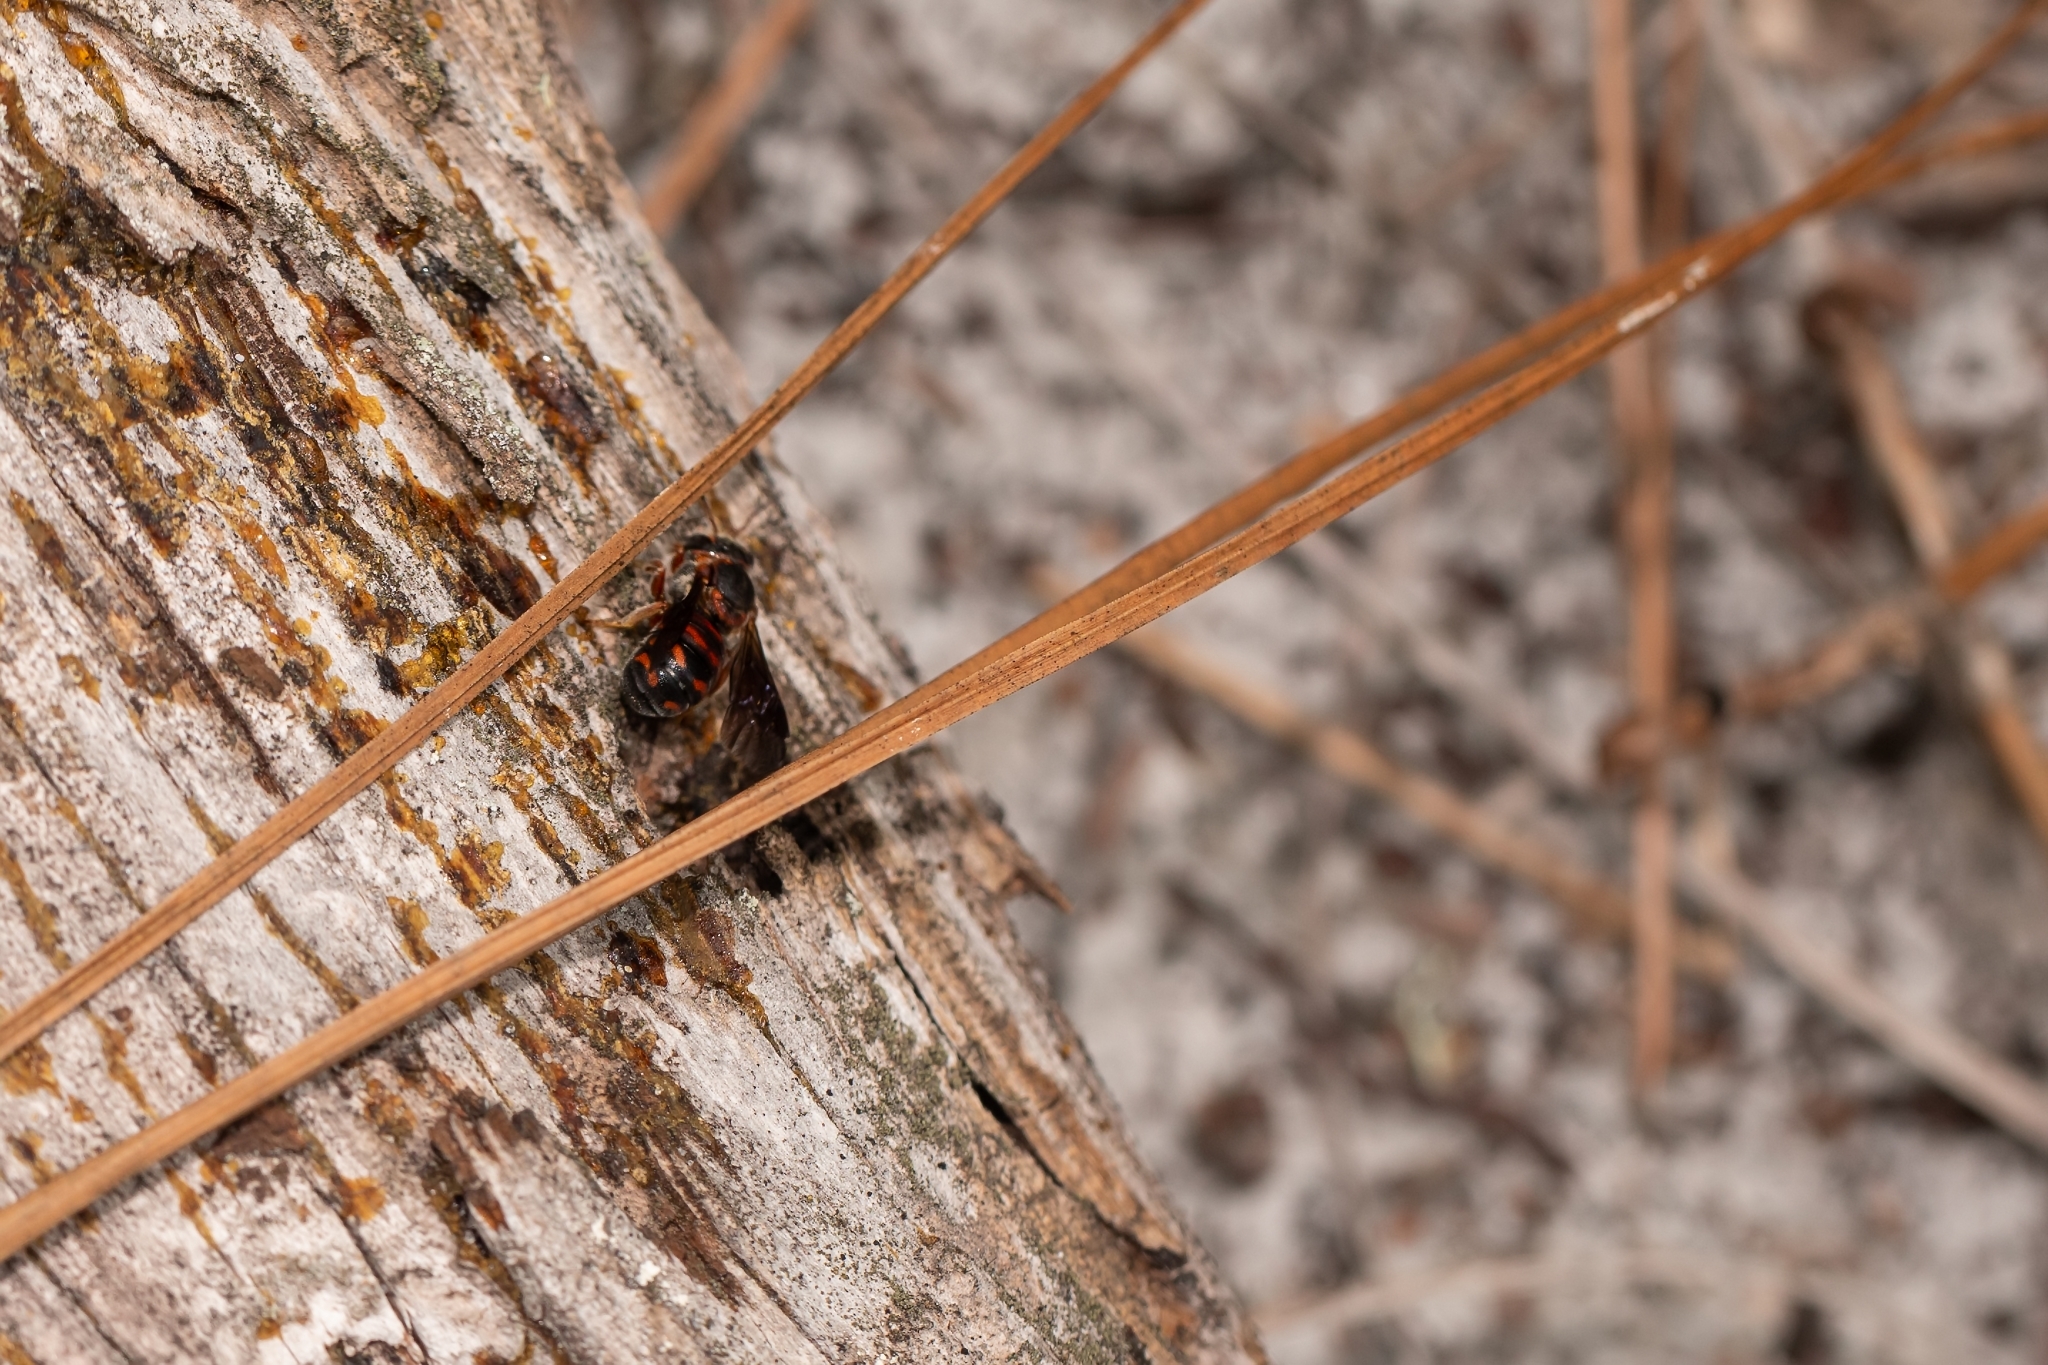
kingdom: Animalia
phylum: Arthropoda
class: Insecta
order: Hymenoptera
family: Megachilidae
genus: Dianthidium
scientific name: Dianthidium floridiense
